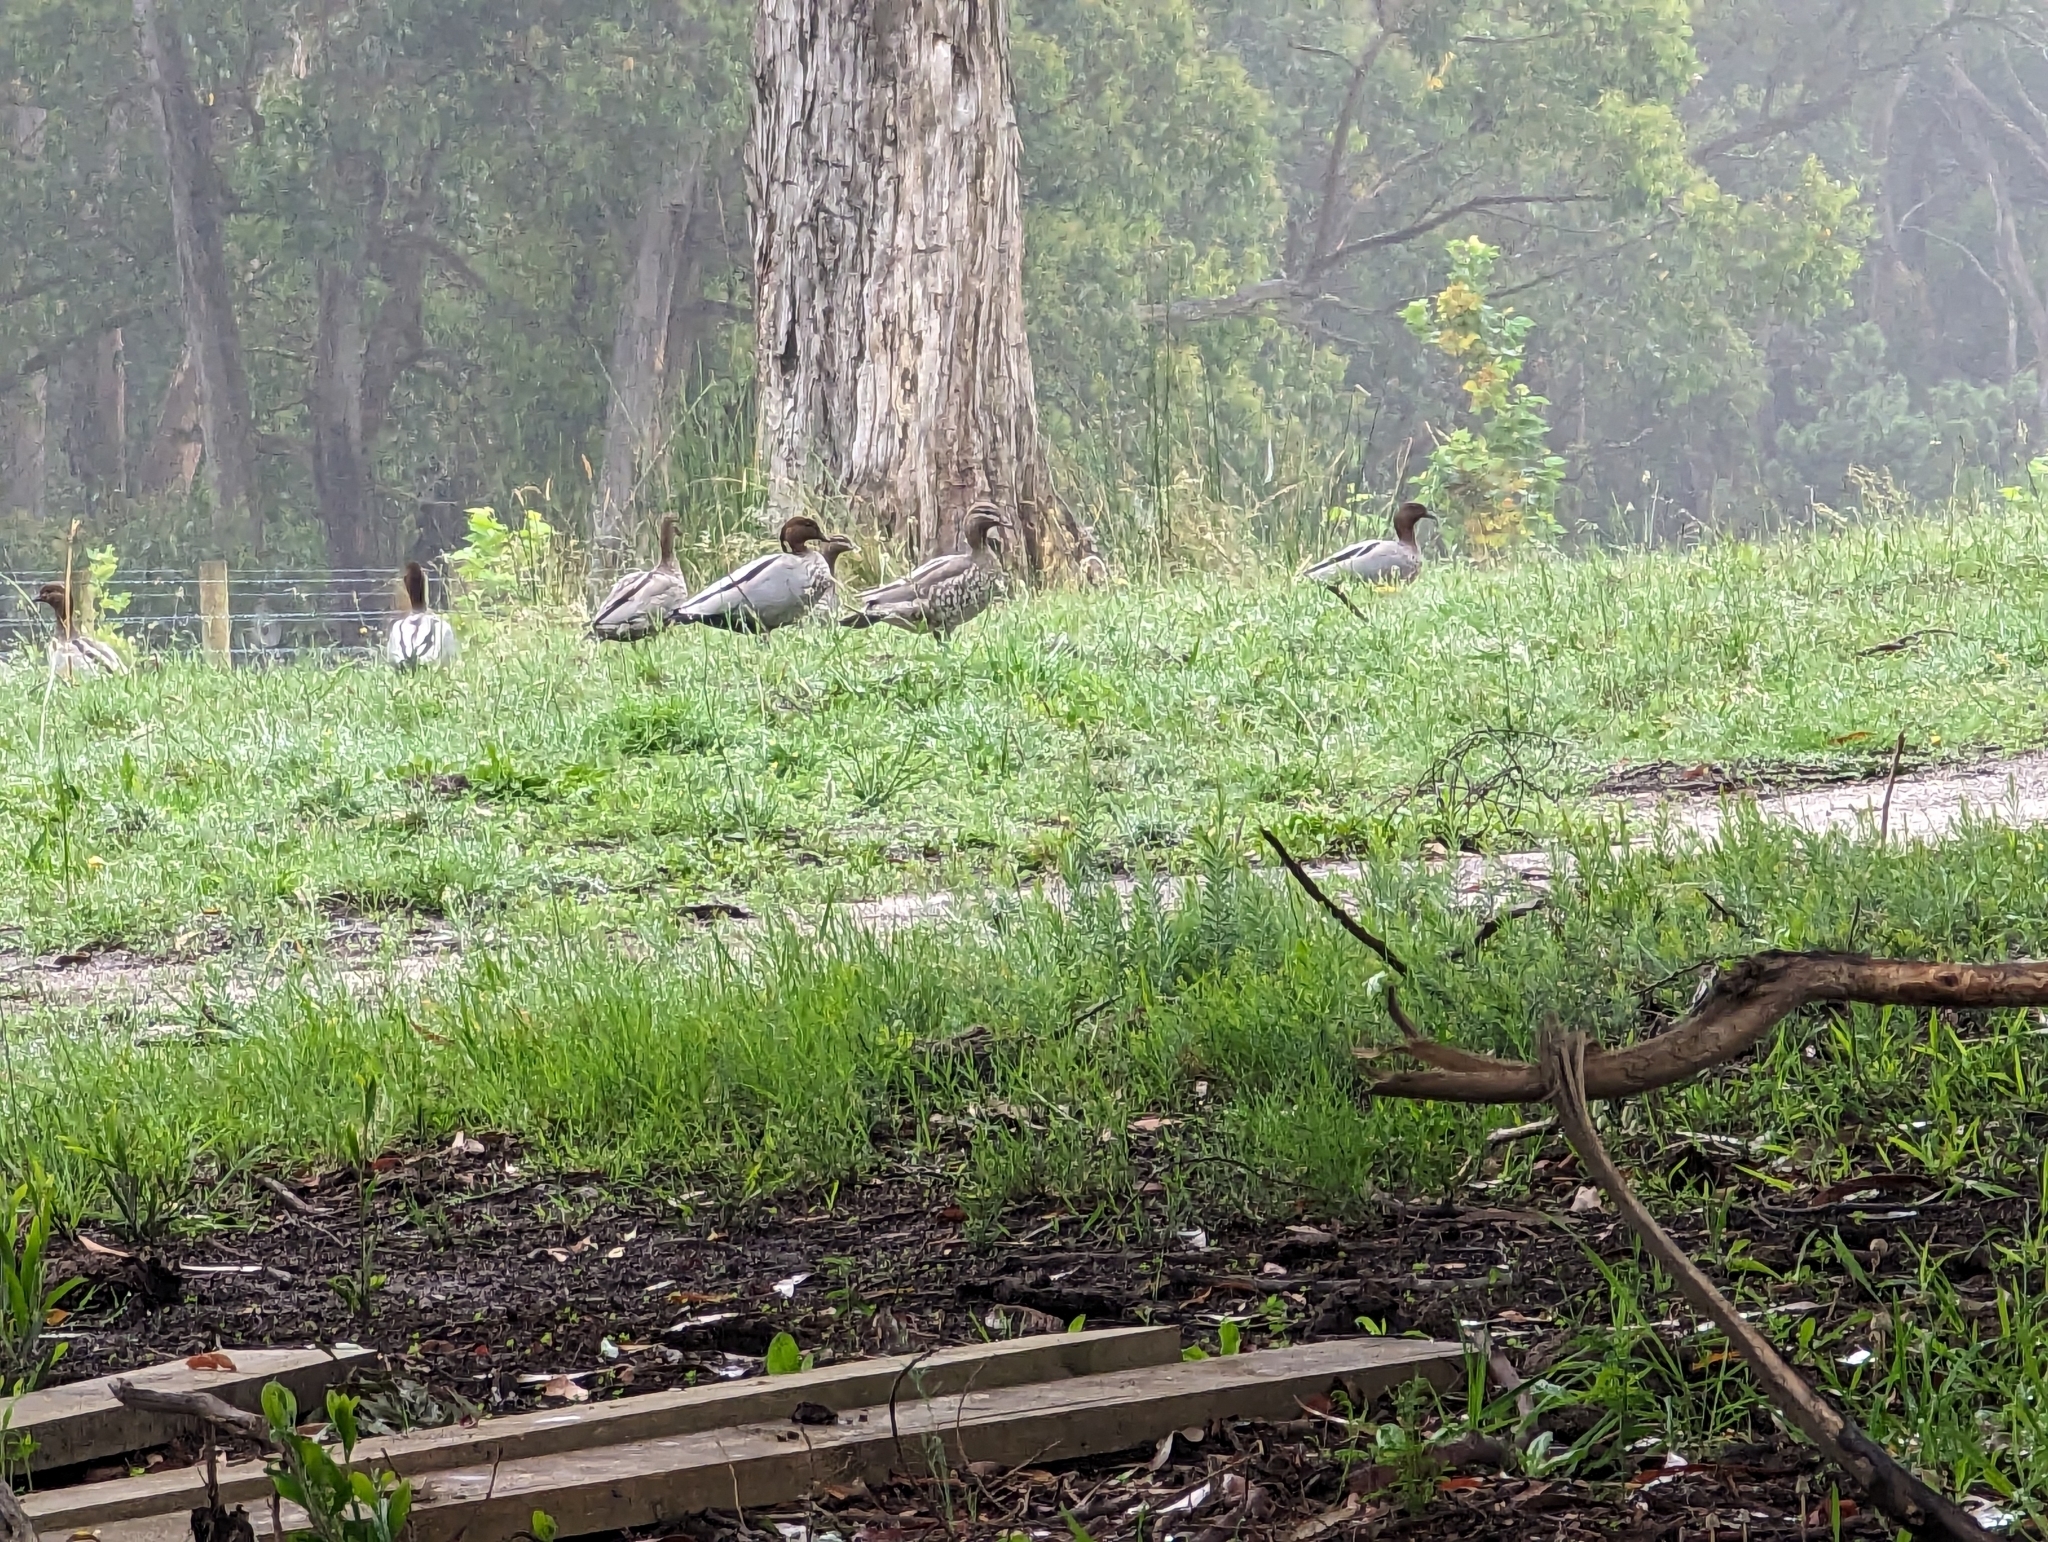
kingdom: Animalia
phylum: Chordata
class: Aves
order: Anseriformes
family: Anatidae
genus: Chenonetta
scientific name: Chenonetta jubata
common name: Maned duck
